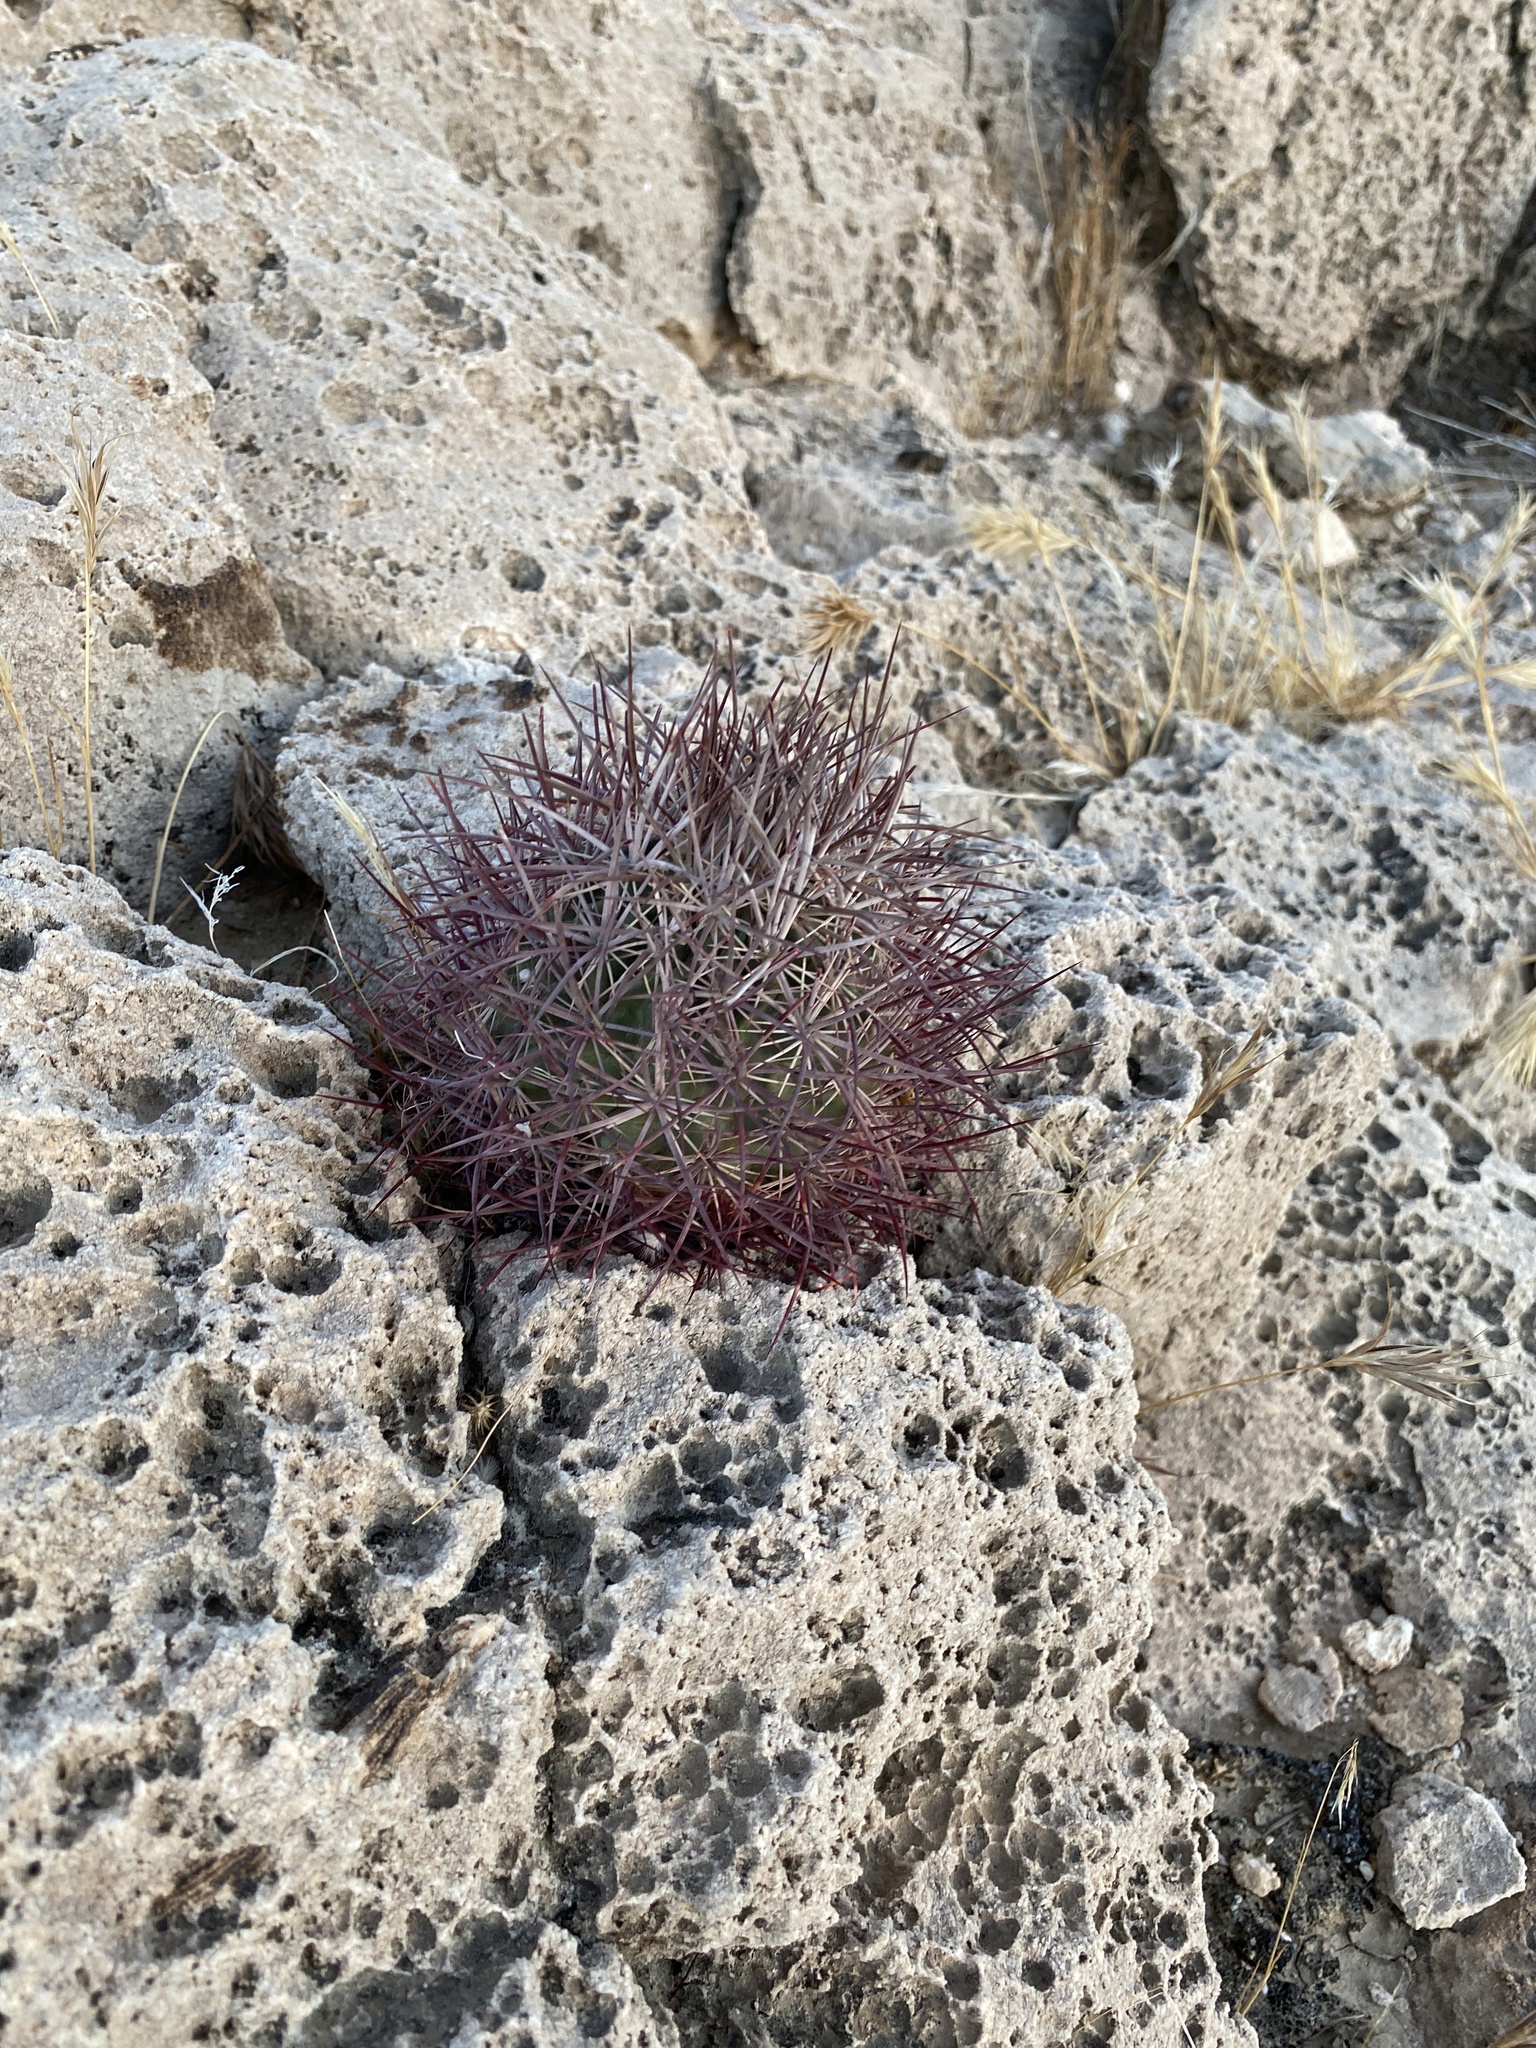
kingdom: Plantae
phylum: Tracheophyta
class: Magnoliopsida
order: Caryophyllales
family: Cactaceae
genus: Sclerocactus
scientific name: Sclerocactus johnsonii
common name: Eight-spine fishhook cactus
